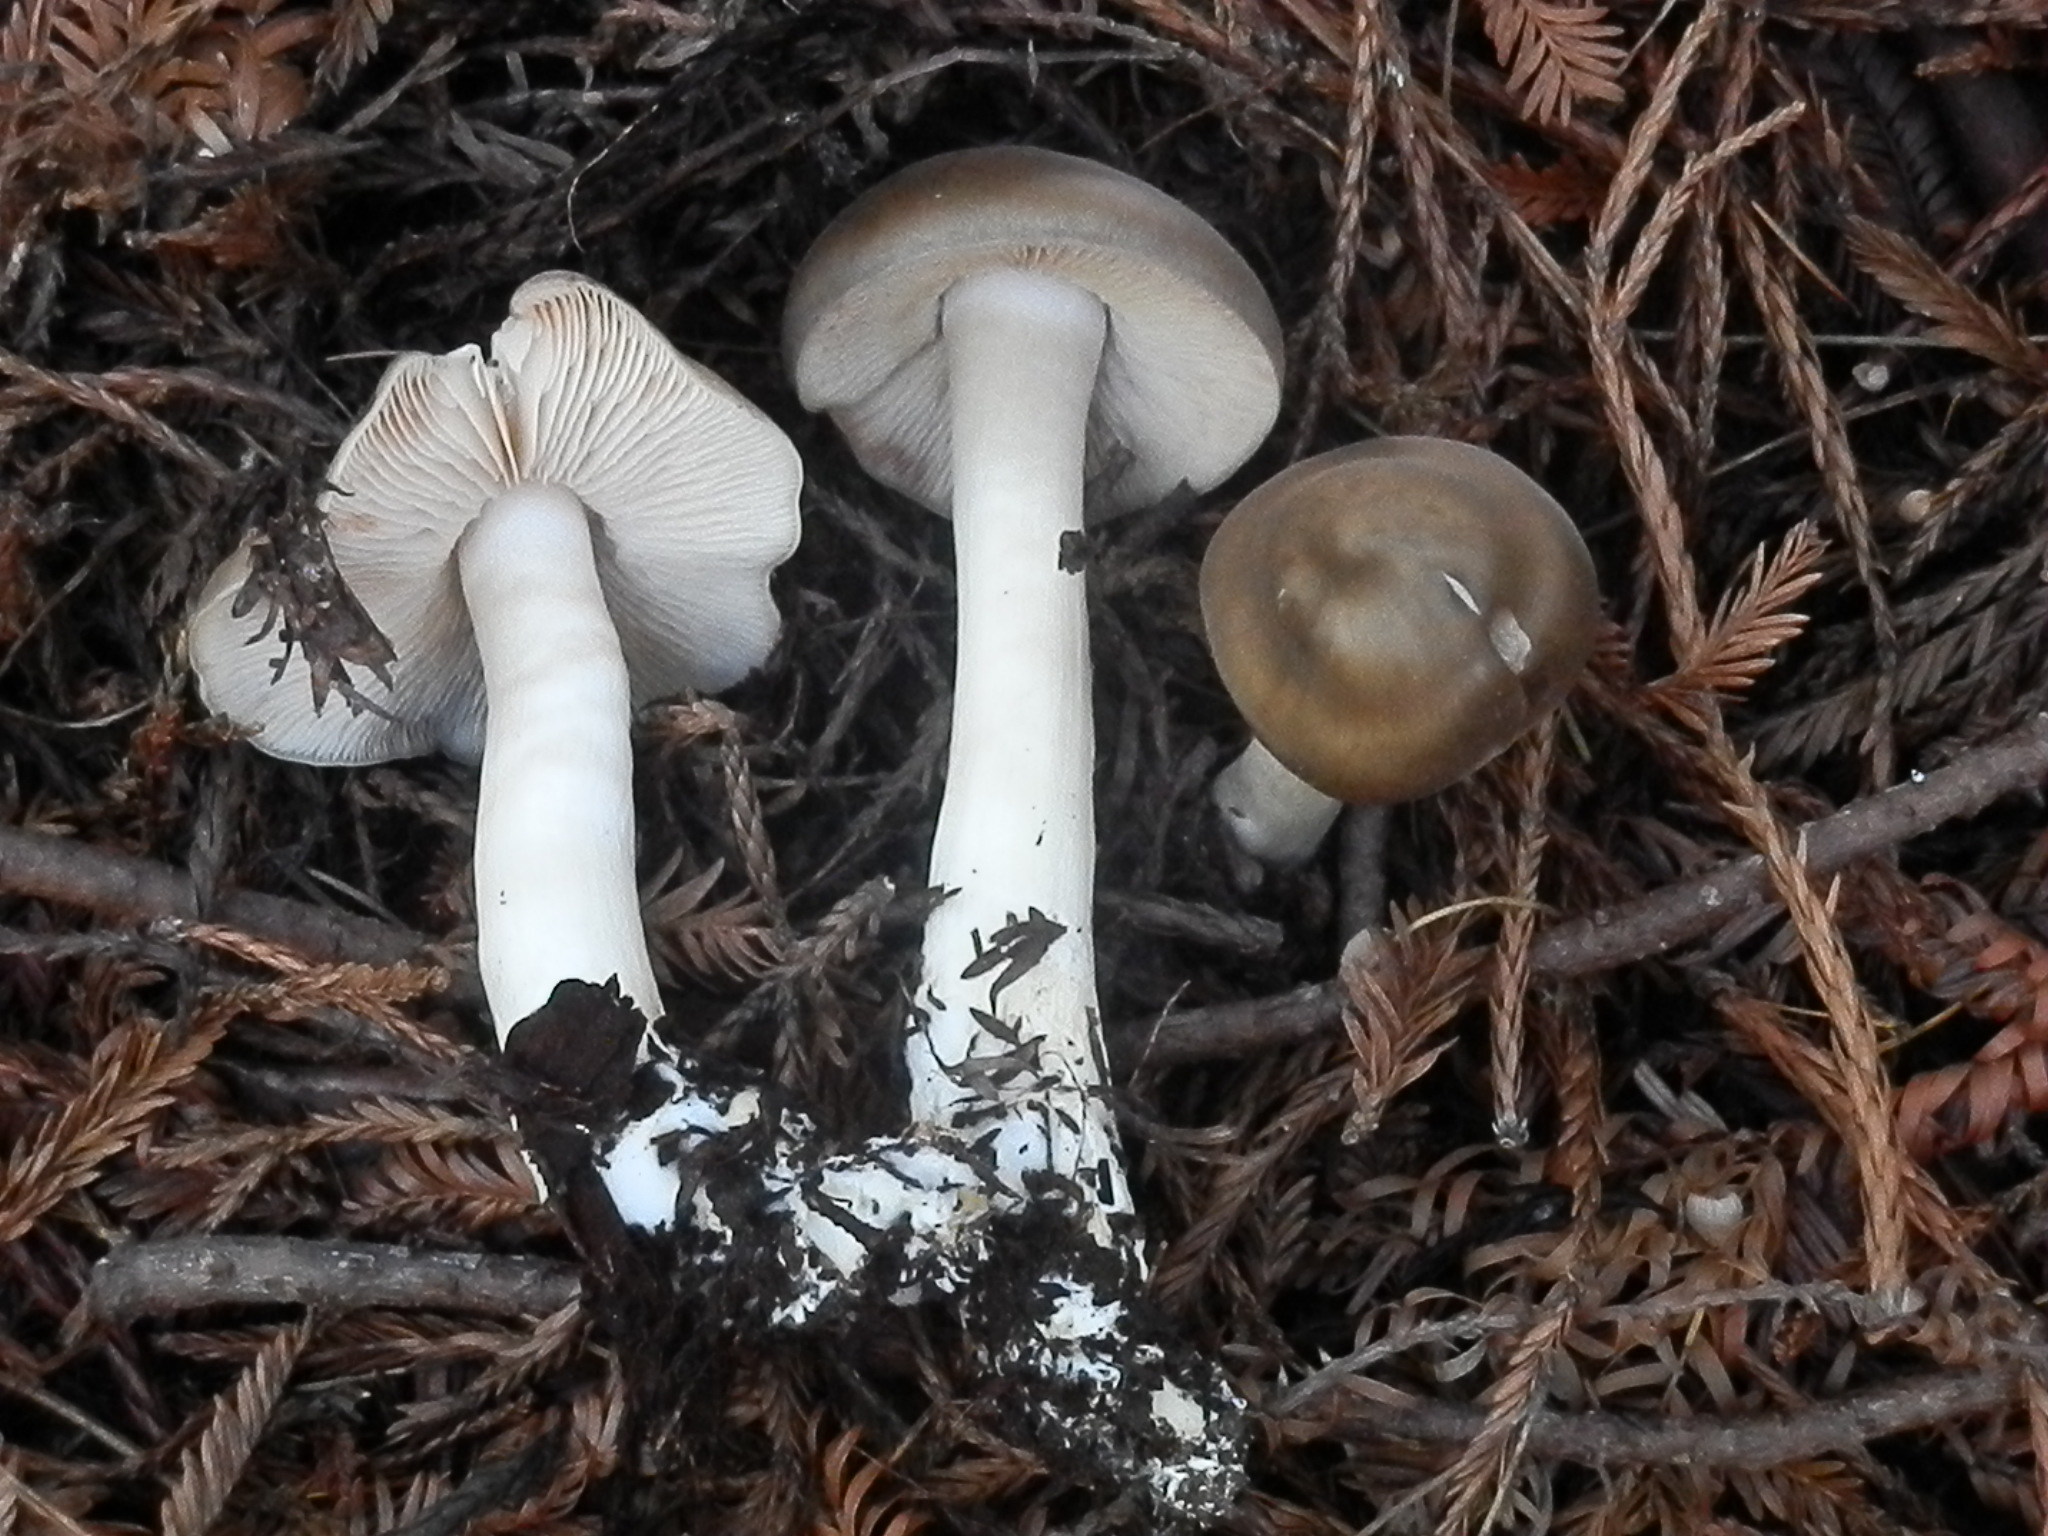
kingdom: Fungi
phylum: Basidiomycota
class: Agaricomycetes
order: Agaricales
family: Entolomataceae
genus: Entoloma
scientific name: Entoloma cinereolamellatum
